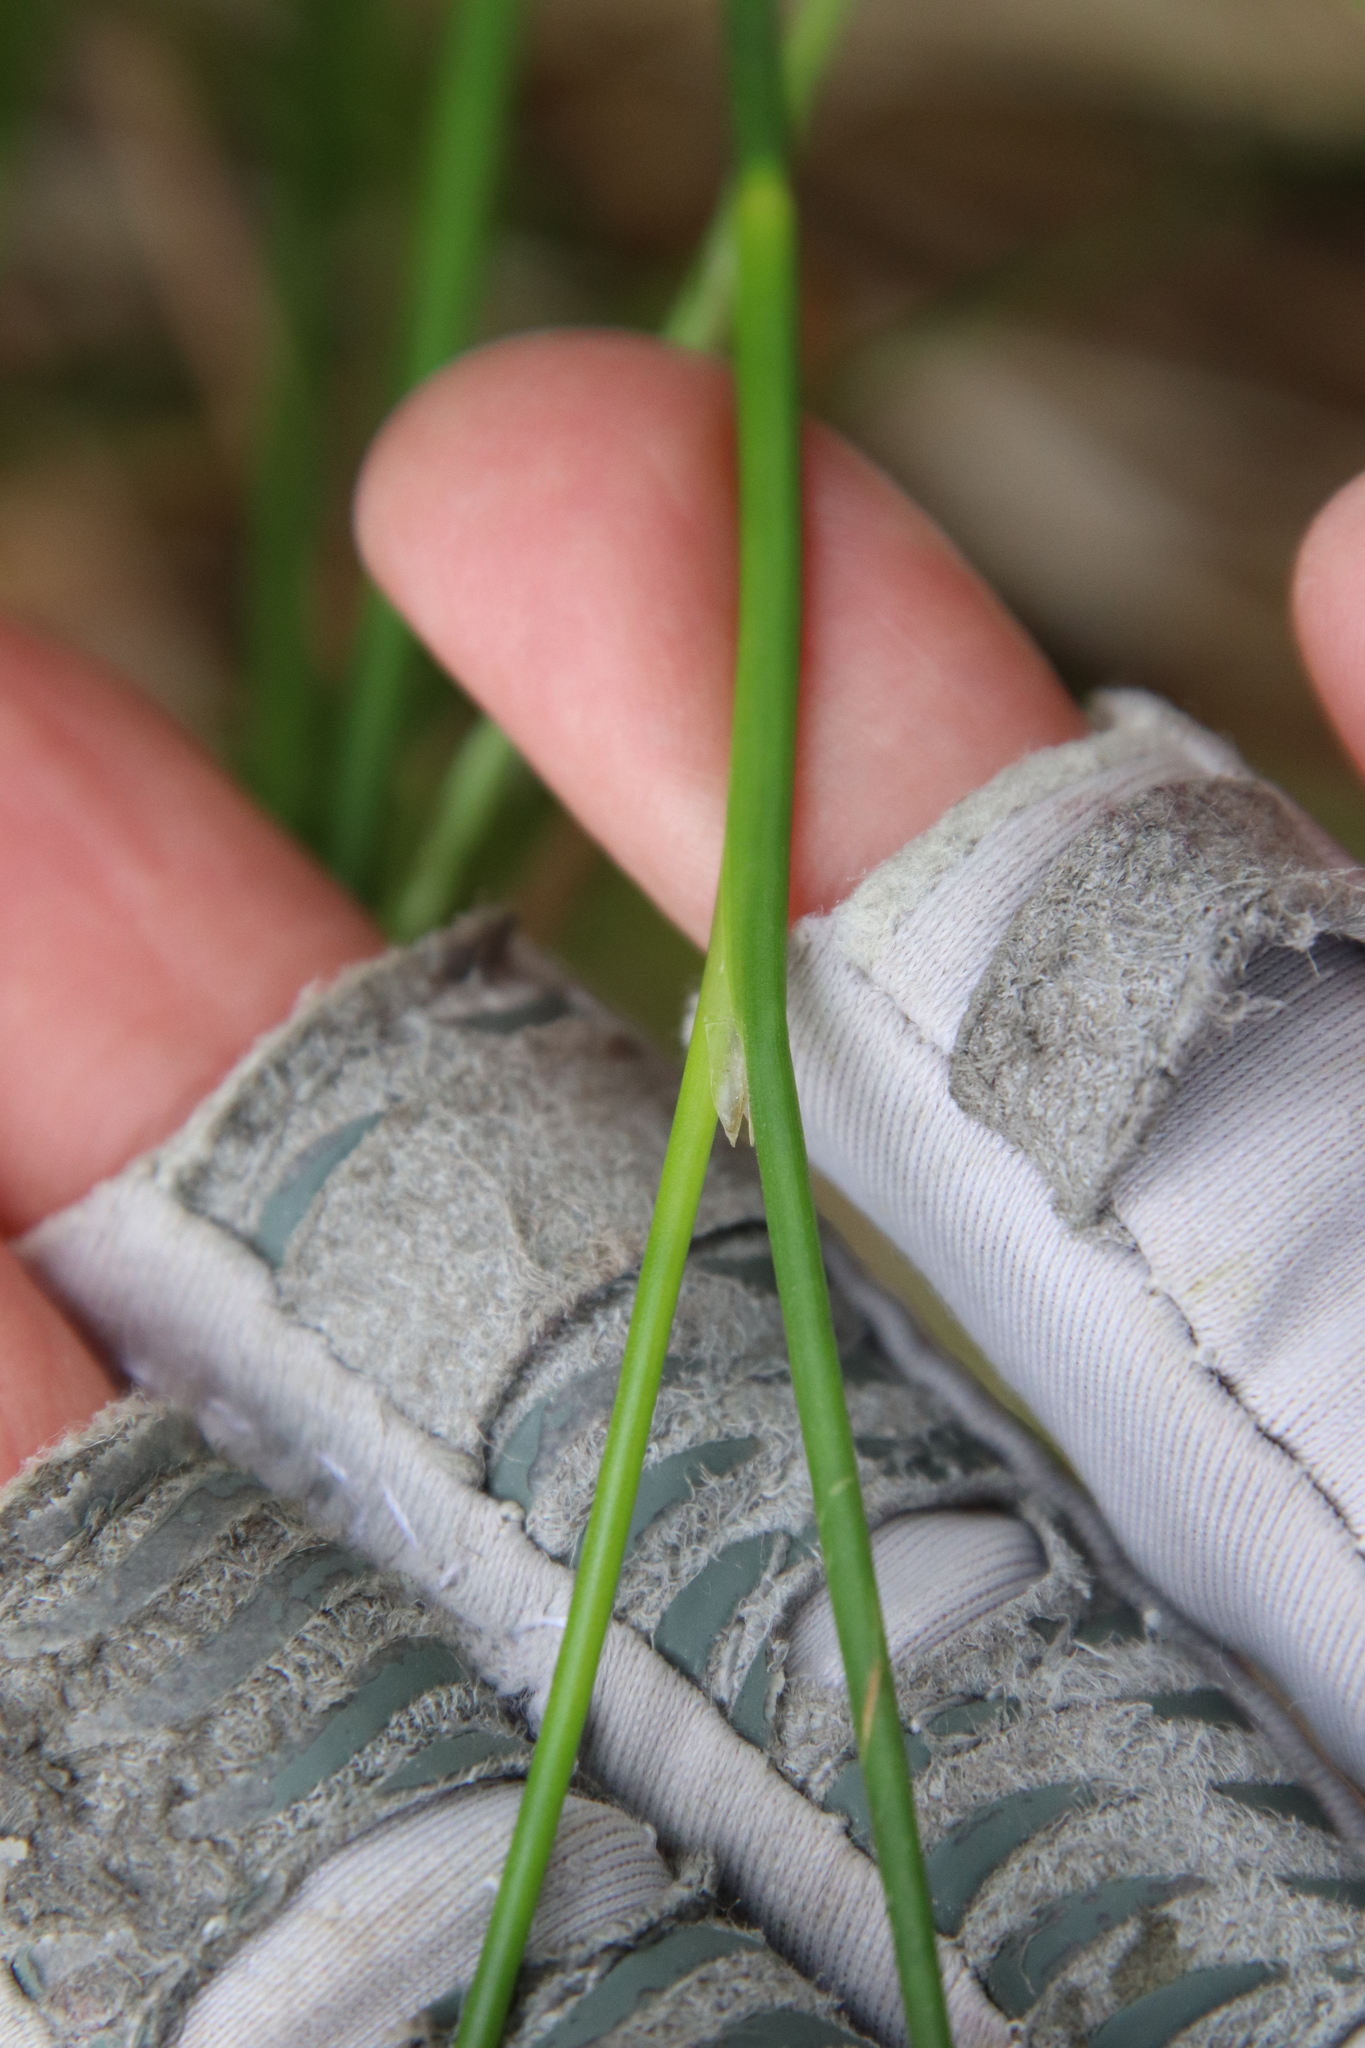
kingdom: Plantae
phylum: Tracheophyta
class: Liliopsida
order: Poales
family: Juncaceae
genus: Juncus
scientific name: Juncus dubius
